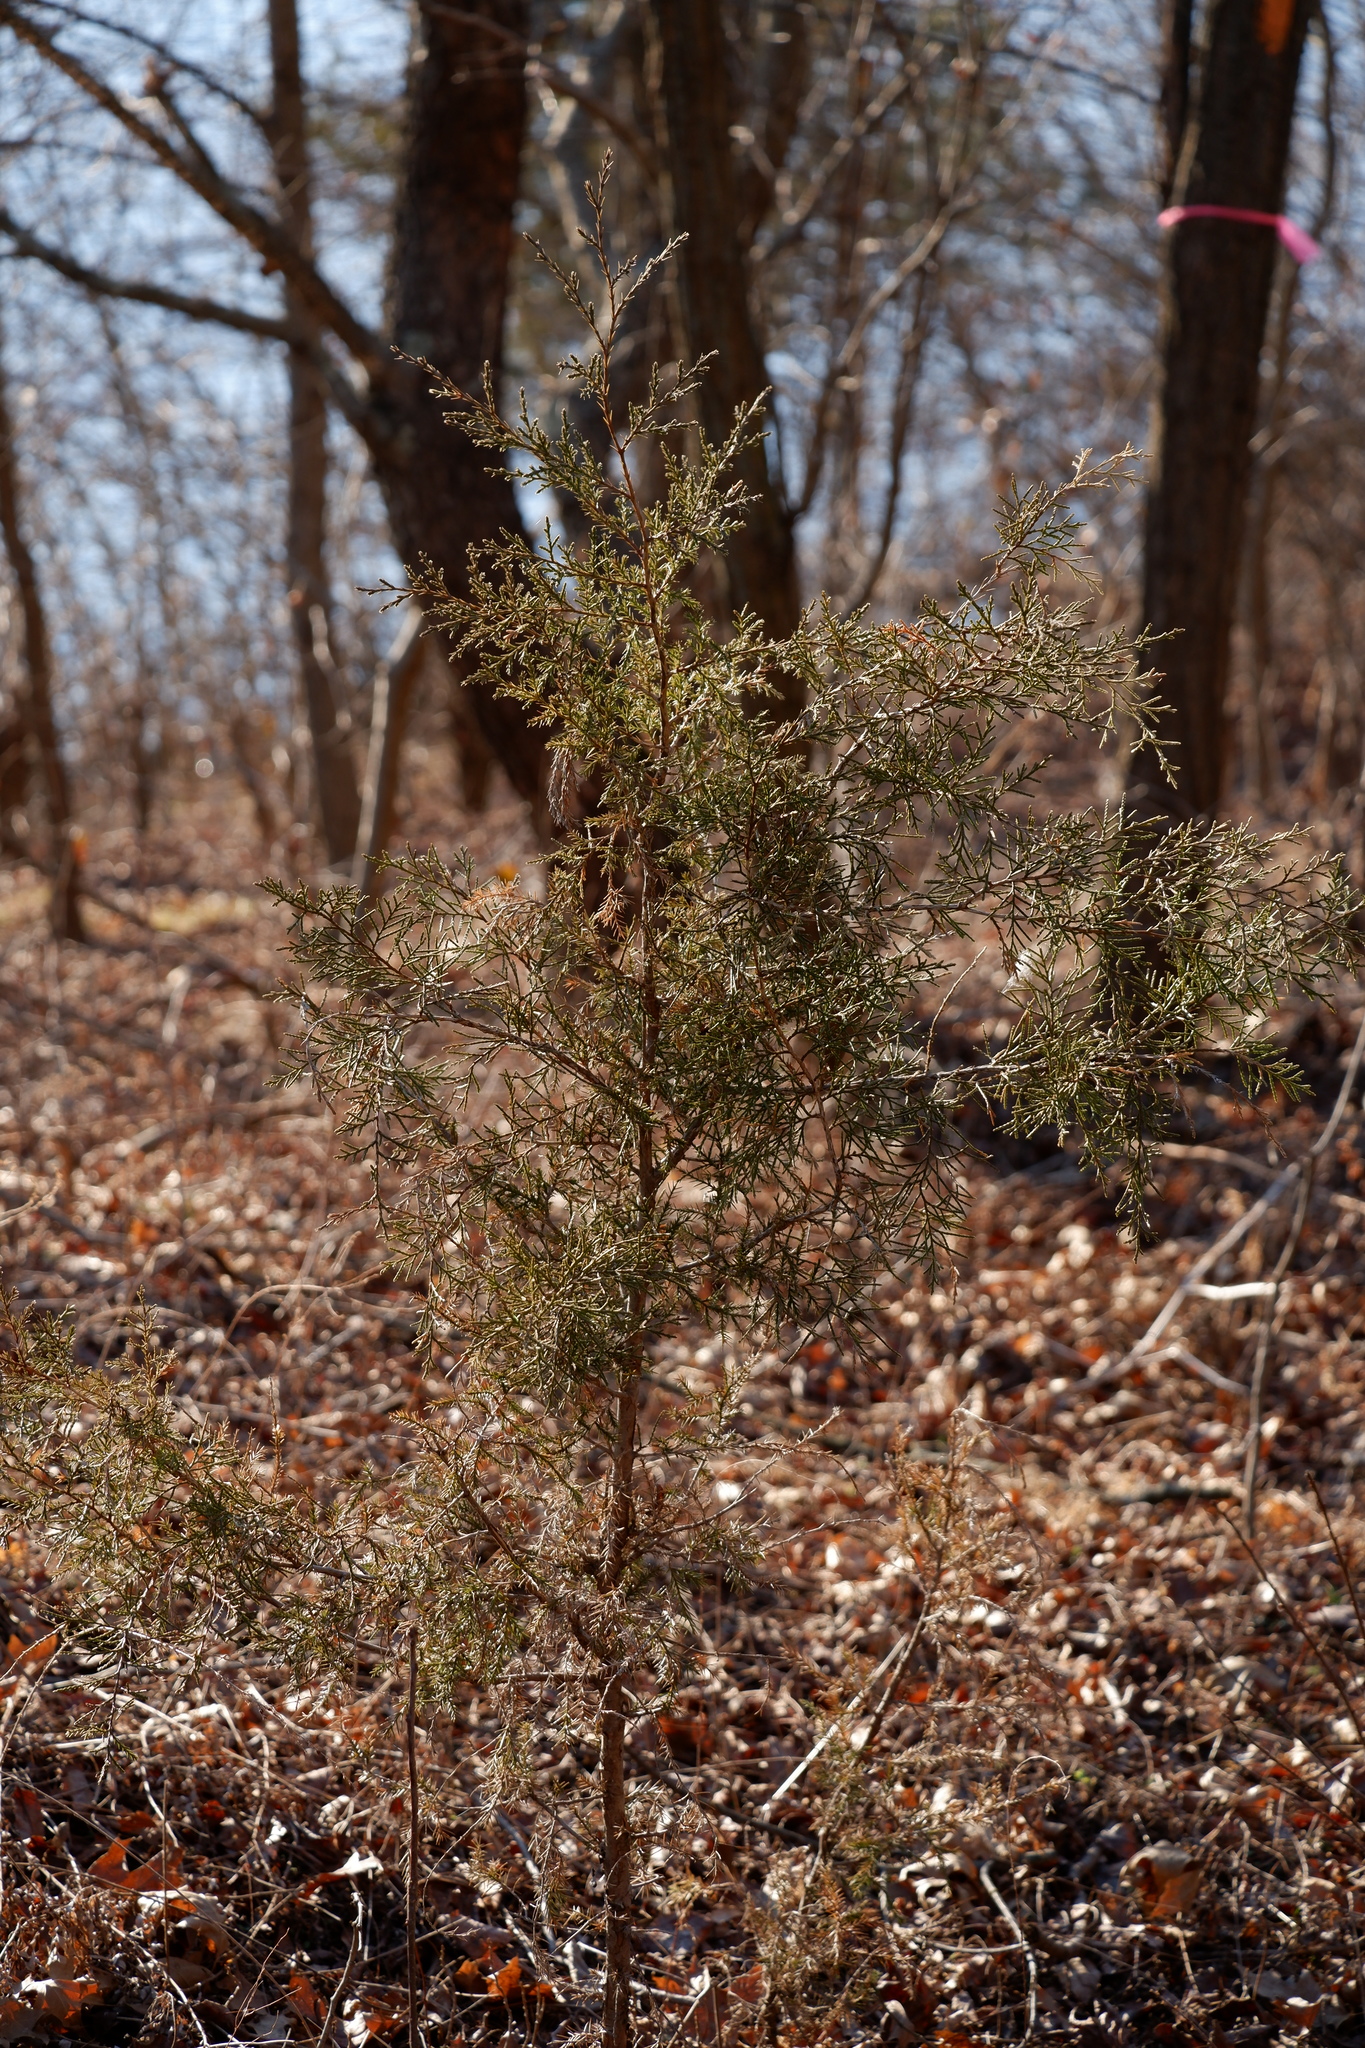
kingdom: Plantae
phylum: Tracheophyta
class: Pinopsida
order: Pinales
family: Cupressaceae
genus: Juniperus
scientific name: Juniperus virginiana
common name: Red juniper
